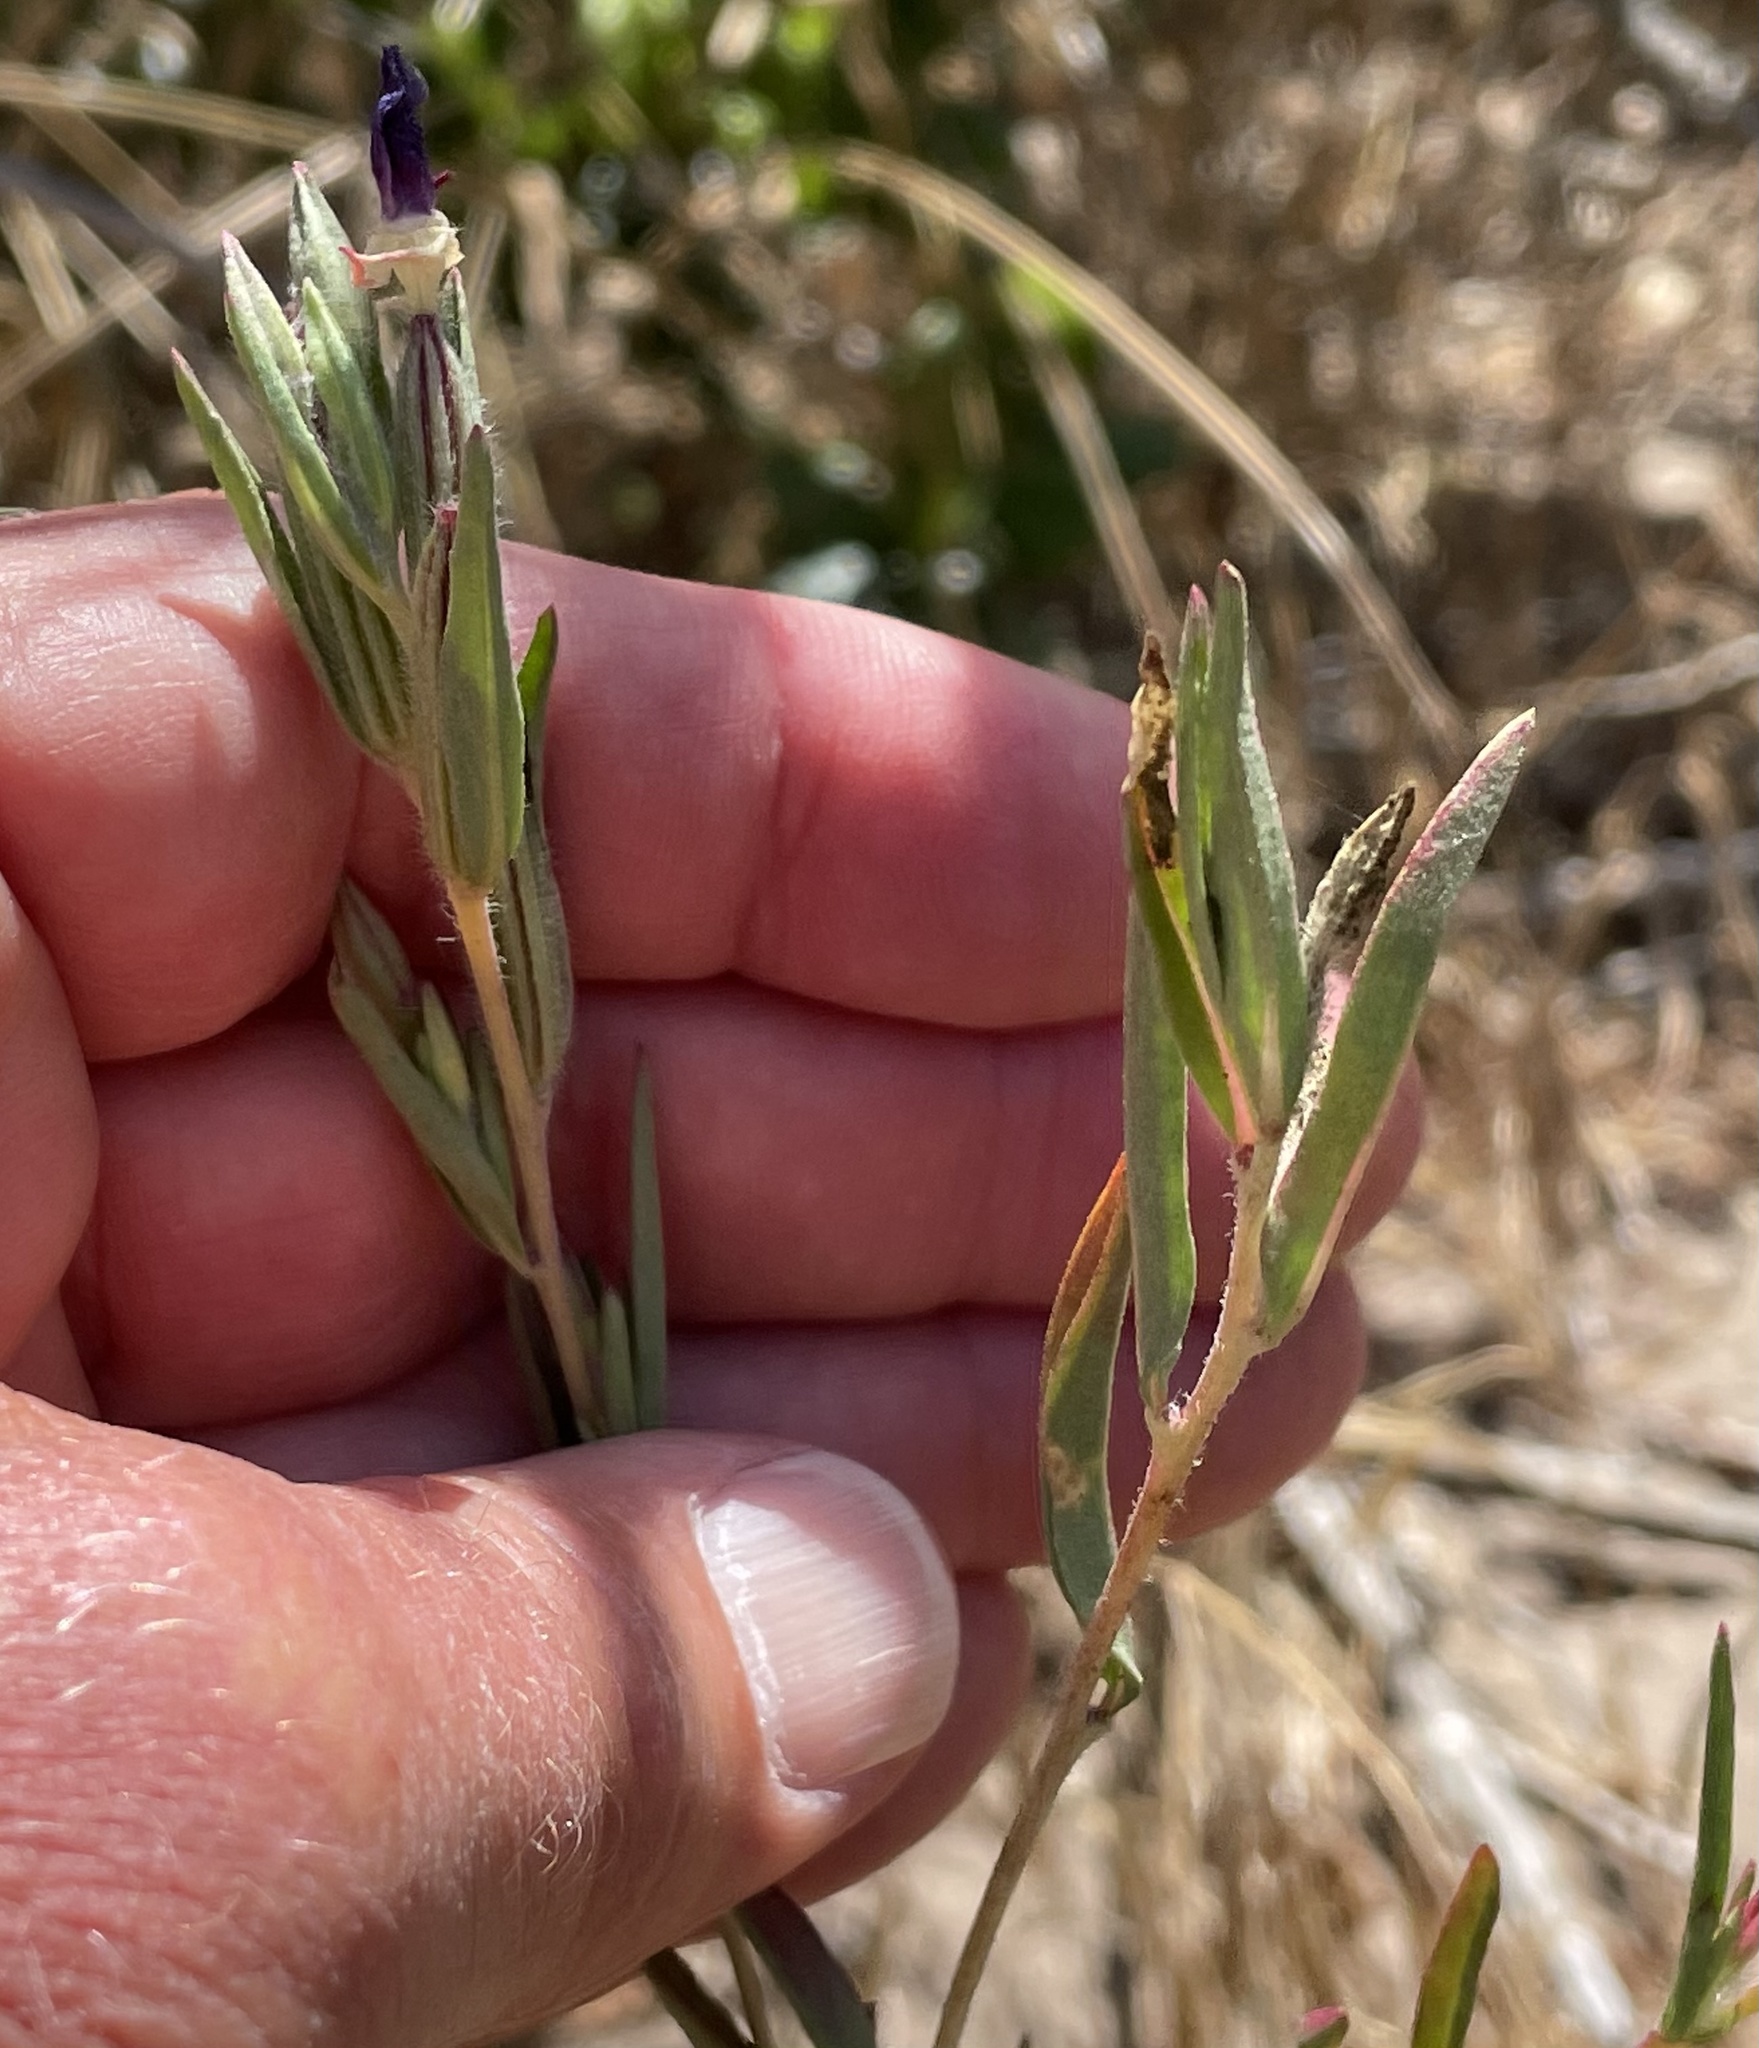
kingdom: Plantae
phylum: Tracheophyta
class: Magnoliopsida
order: Myrtales
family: Onagraceae
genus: Clarkia
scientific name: Clarkia purpurea
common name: Purple clarkia
